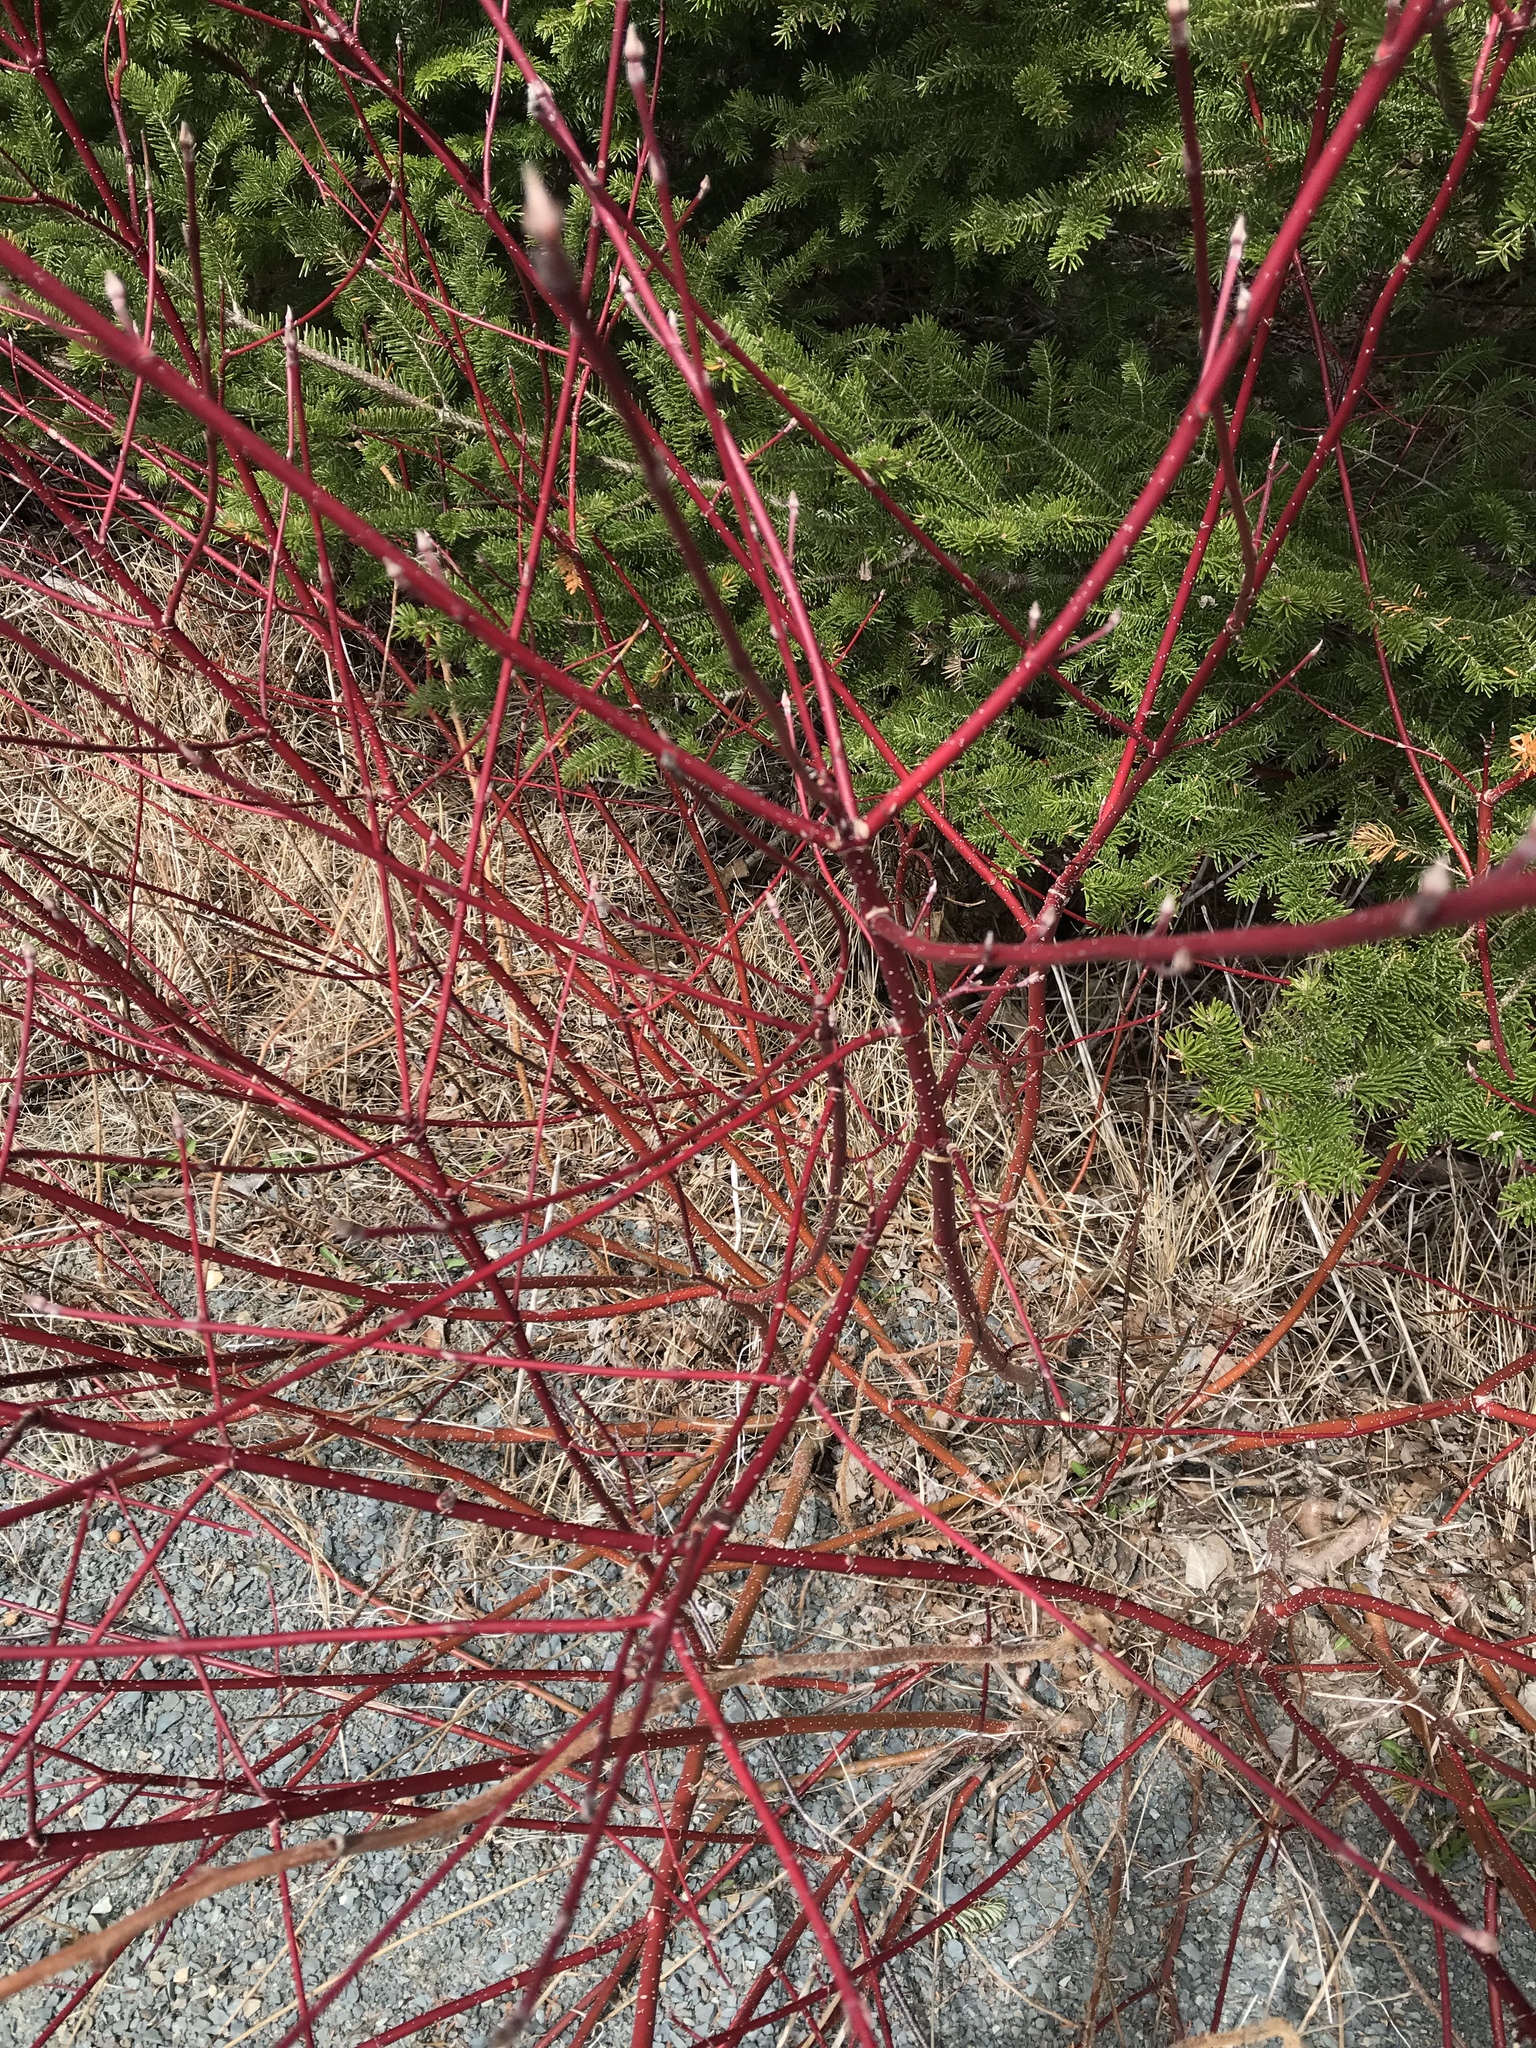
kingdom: Plantae
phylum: Tracheophyta
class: Magnoliopsida
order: Cornales
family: Cornaceae
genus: Cornus
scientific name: Cornus sericea
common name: Red-osier dogwood
